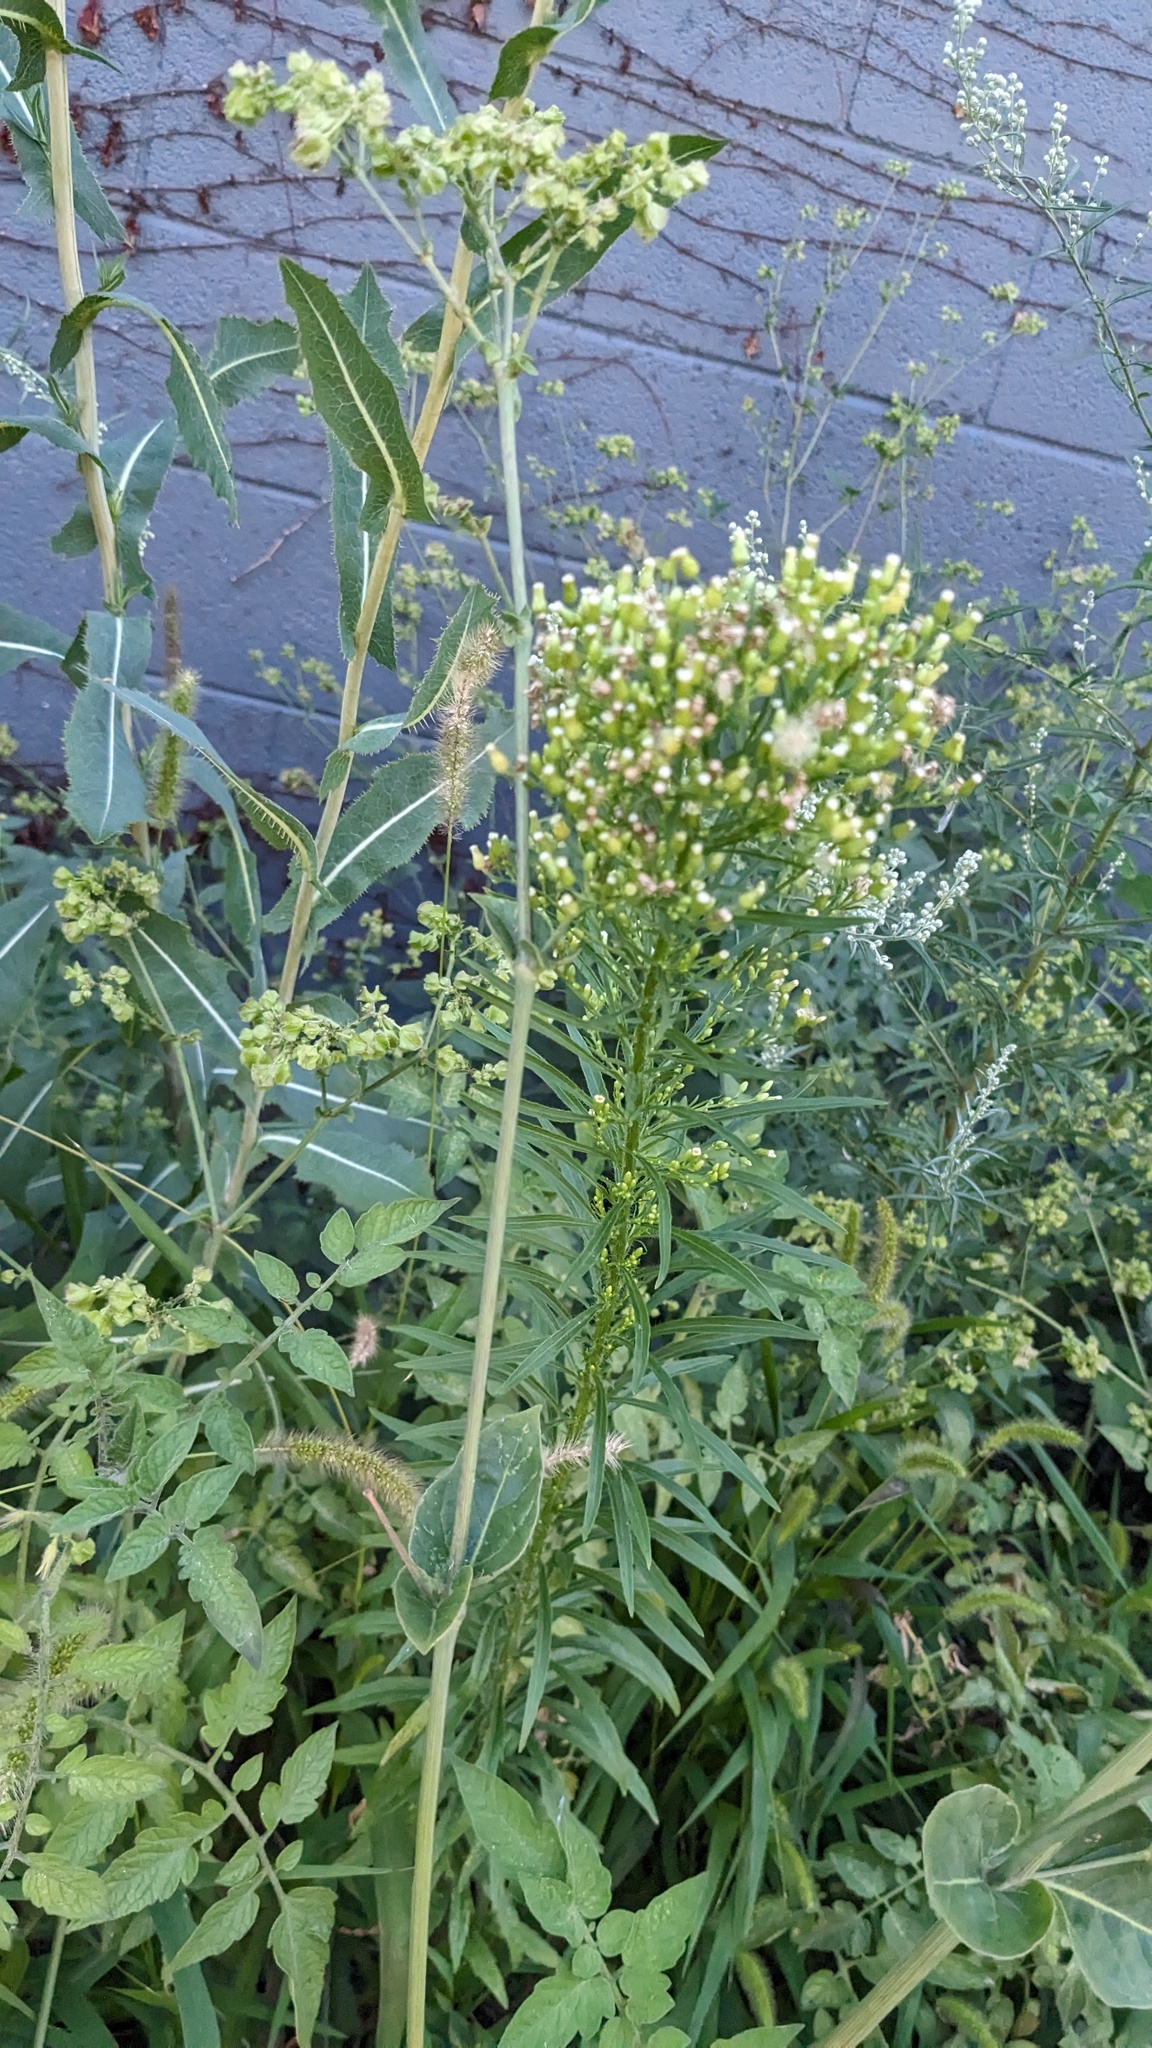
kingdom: Plantae
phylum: Tracheophyta
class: Magnoliopsida
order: Asterales
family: Asteraceae
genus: Erigeron
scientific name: Erigeron canadensis
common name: Canadian fleabane
